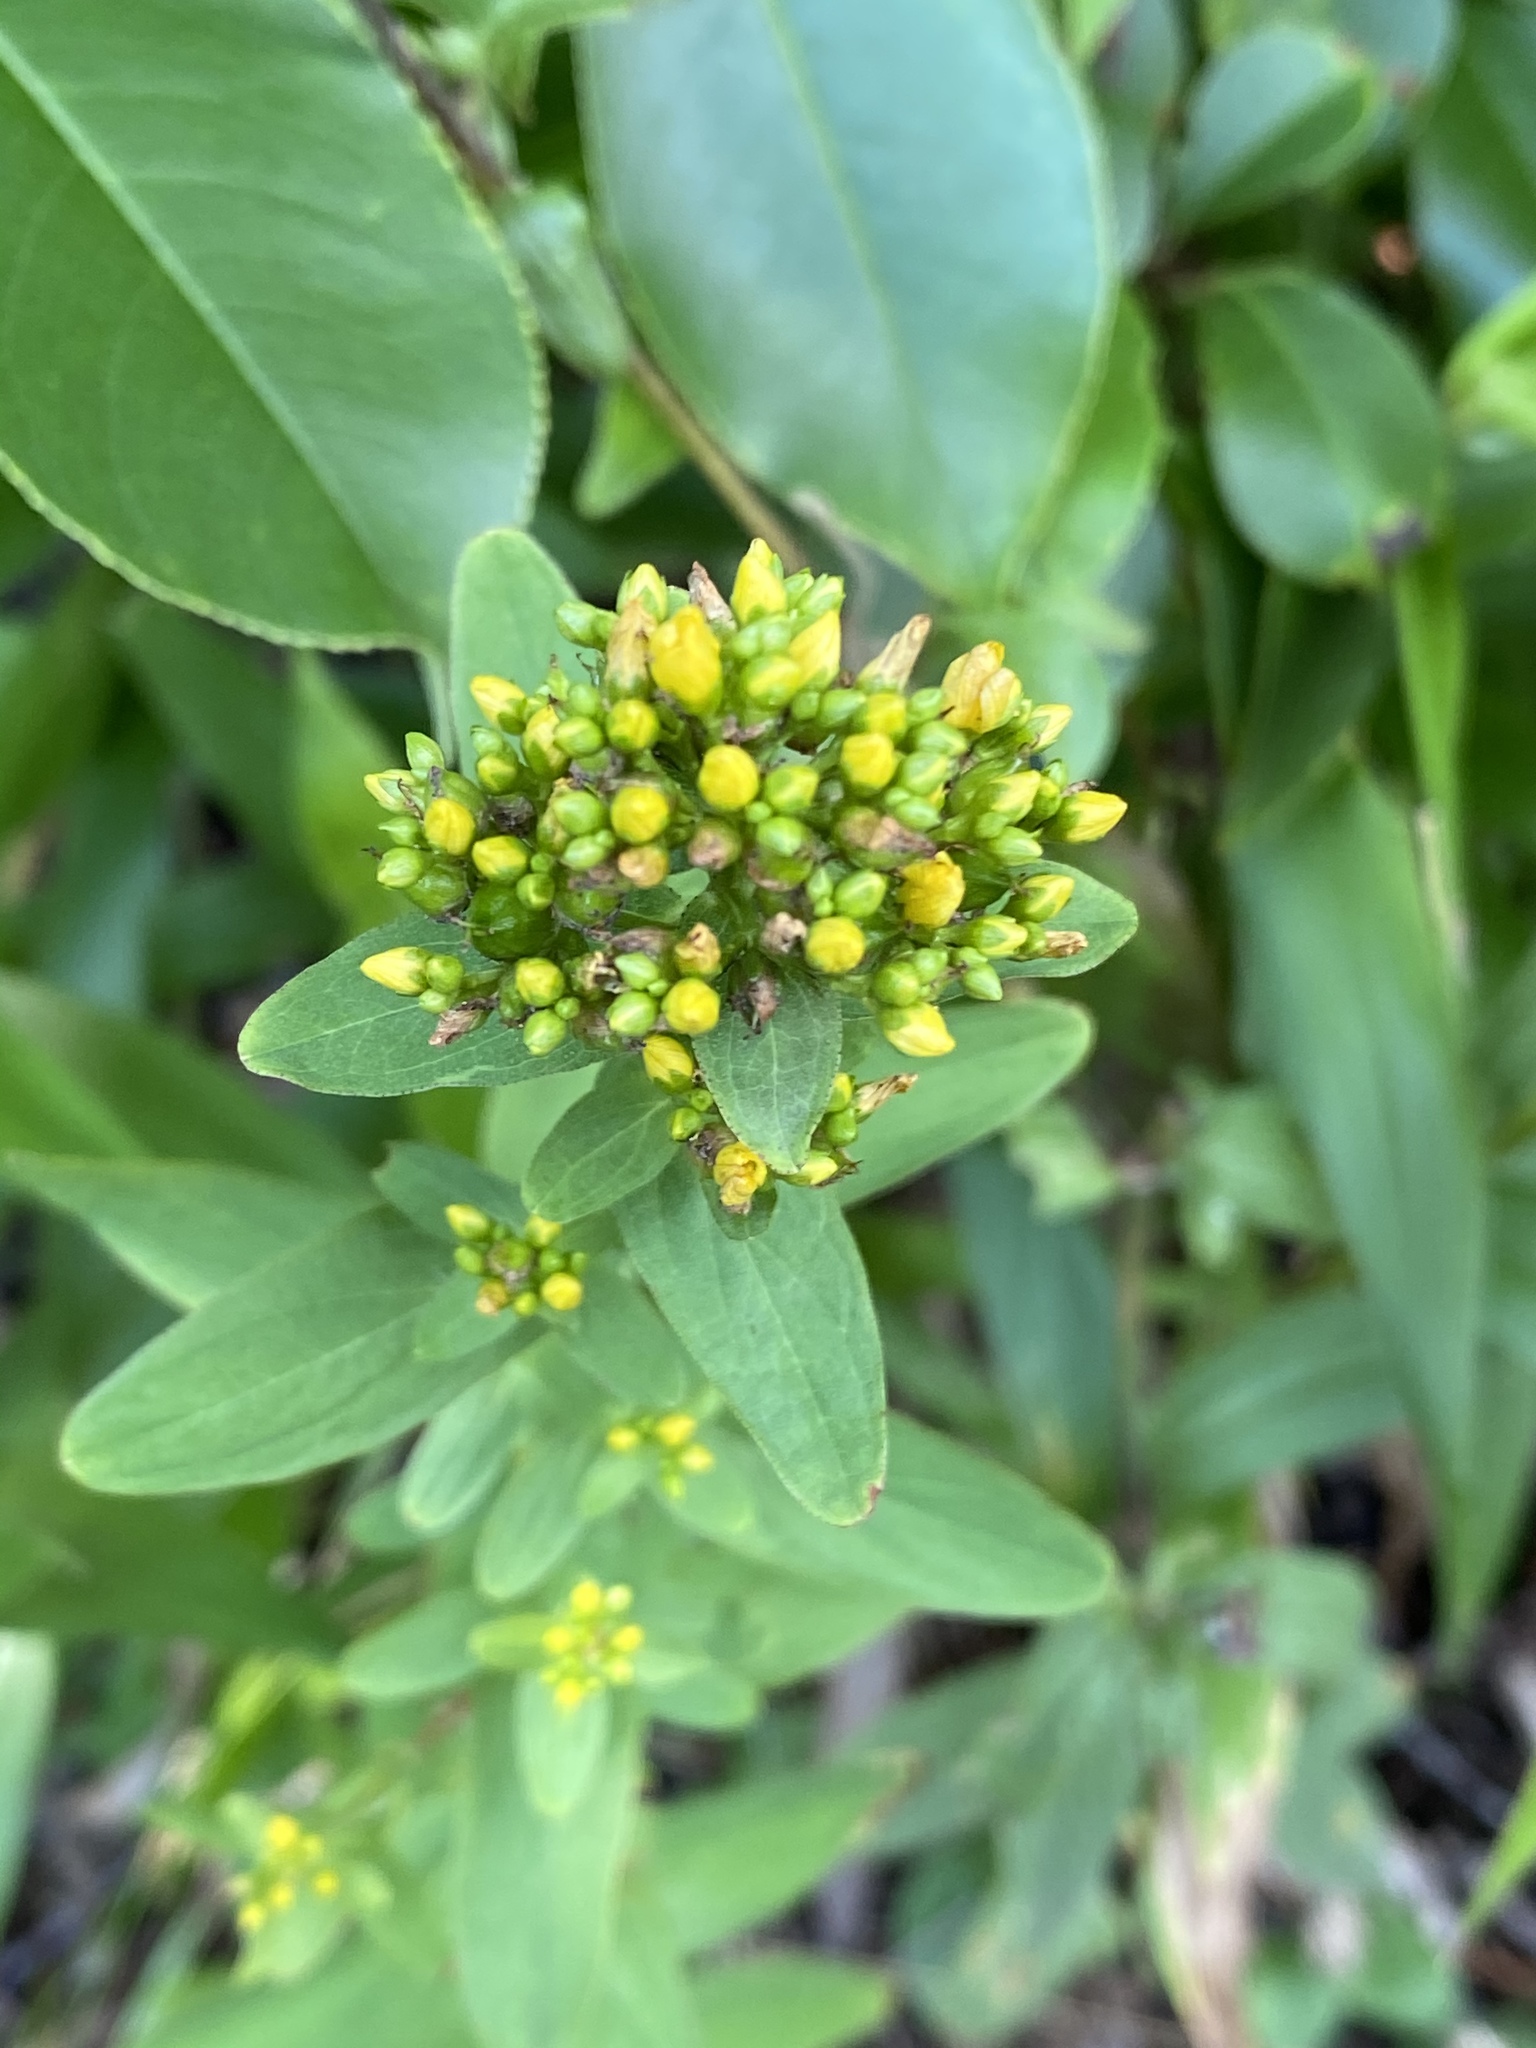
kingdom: Plantae
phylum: Tracheophyta
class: Magnoliopsida
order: Malpighiales
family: Hypericaceae
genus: Hypericum
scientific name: Hypericum punctatum
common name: Spotted st. john's-wort
